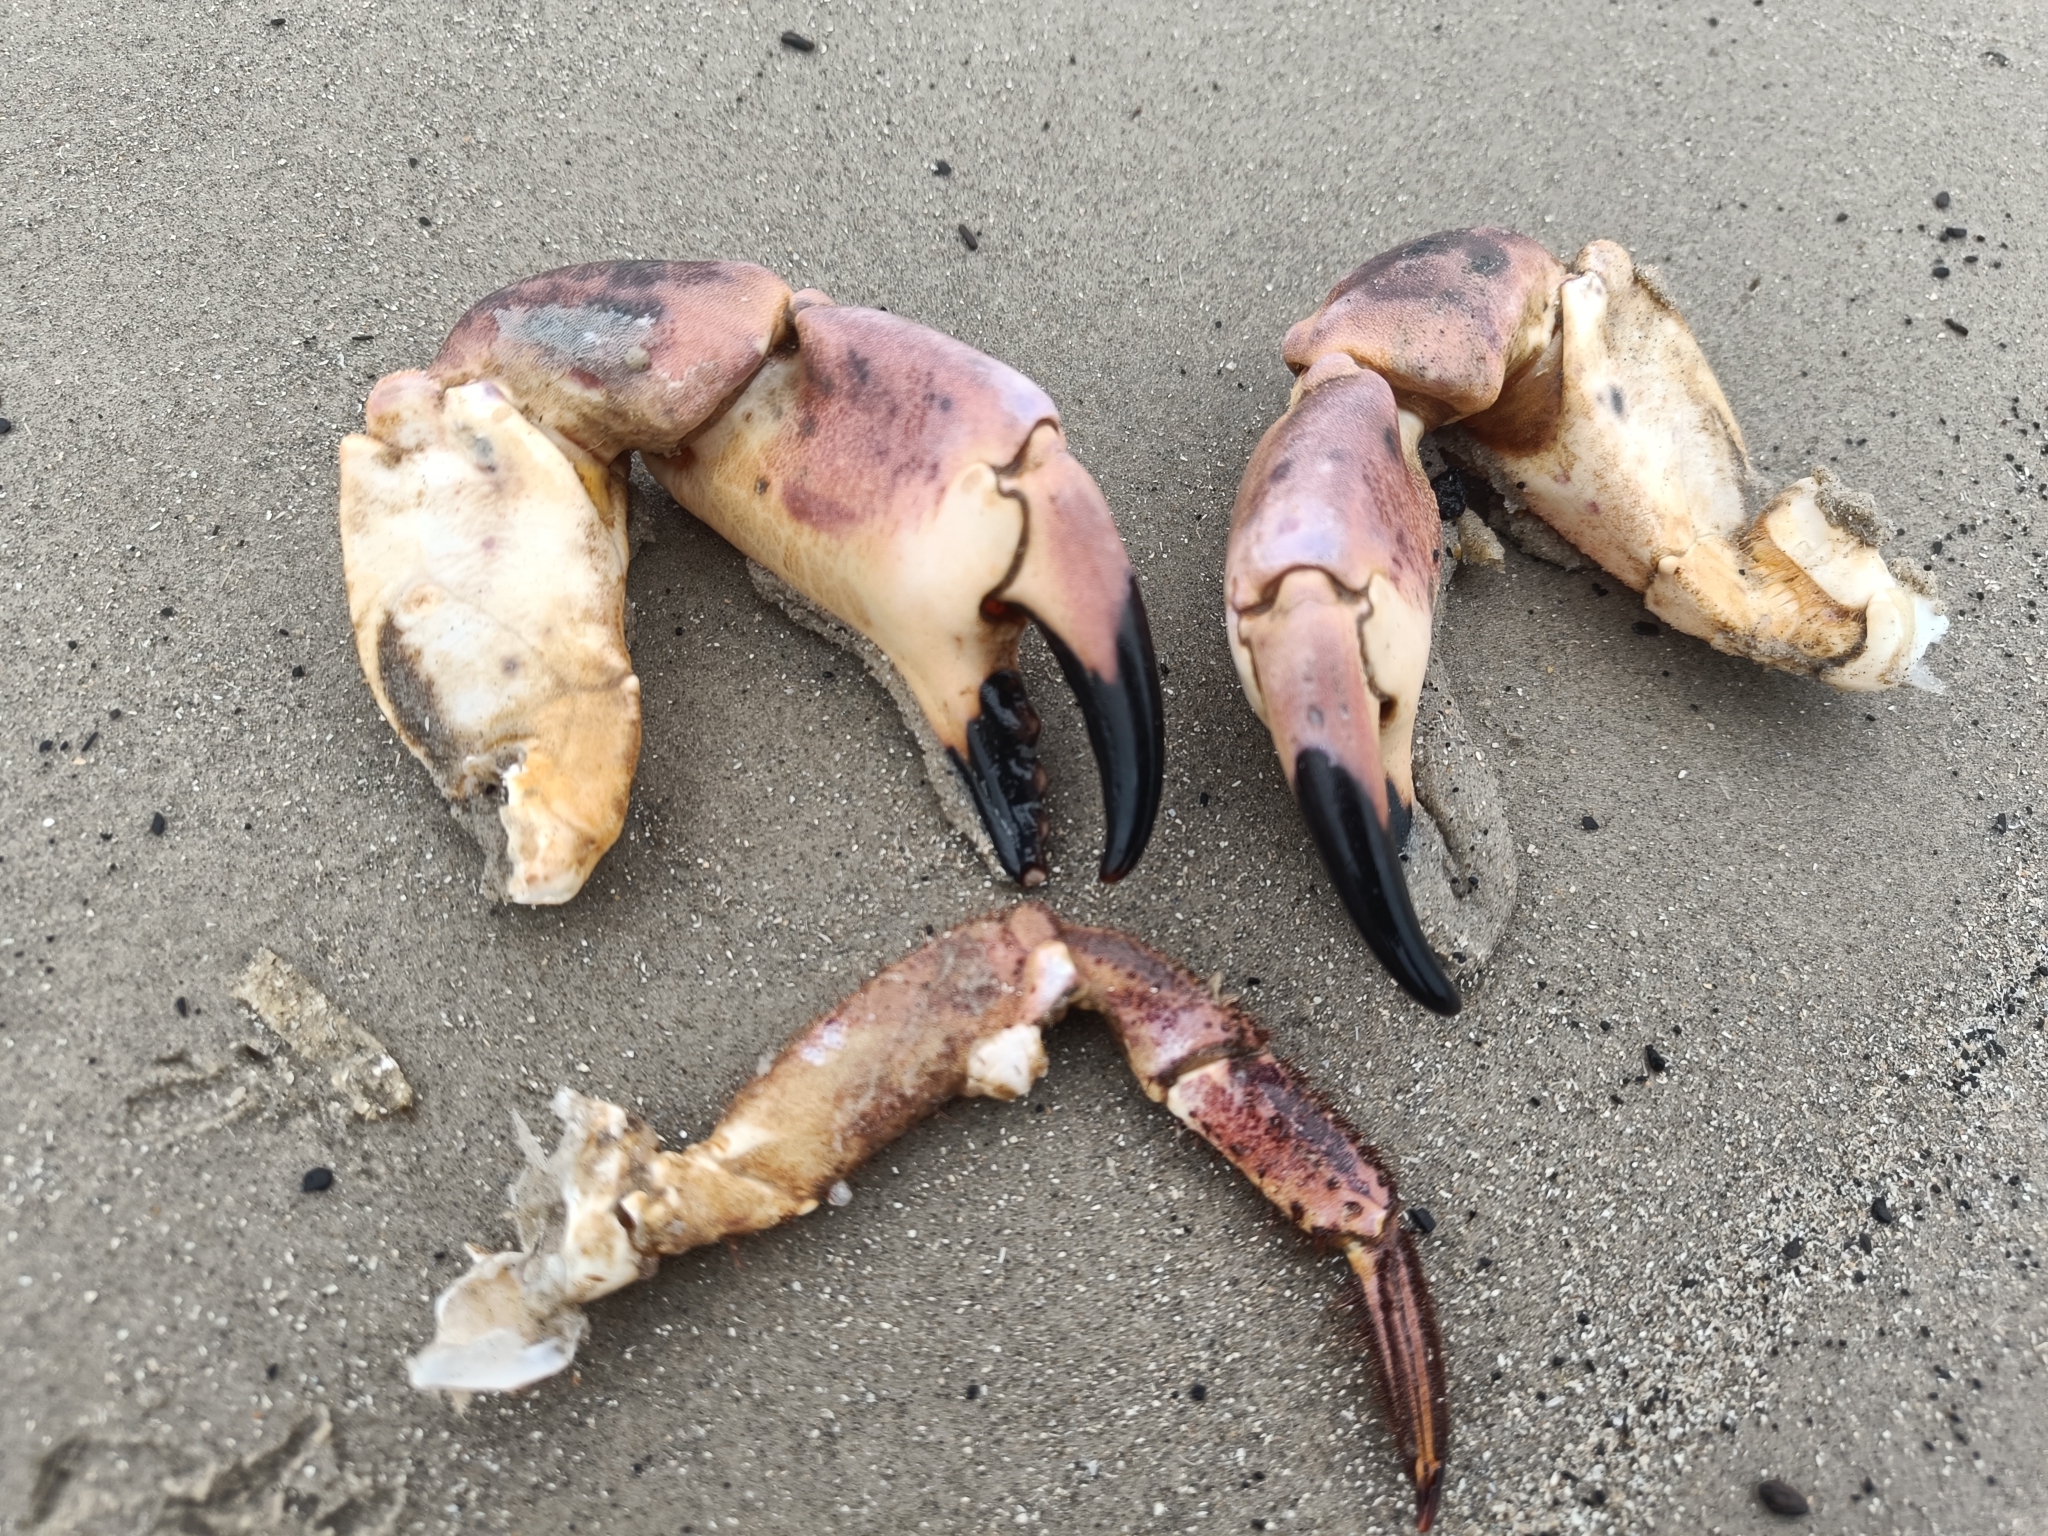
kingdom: Animalia
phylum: Arthropoda
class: Malacostraca
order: Decapoda
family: Cancridae
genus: Cancer
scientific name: Cancer pagurus
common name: Edible crab
